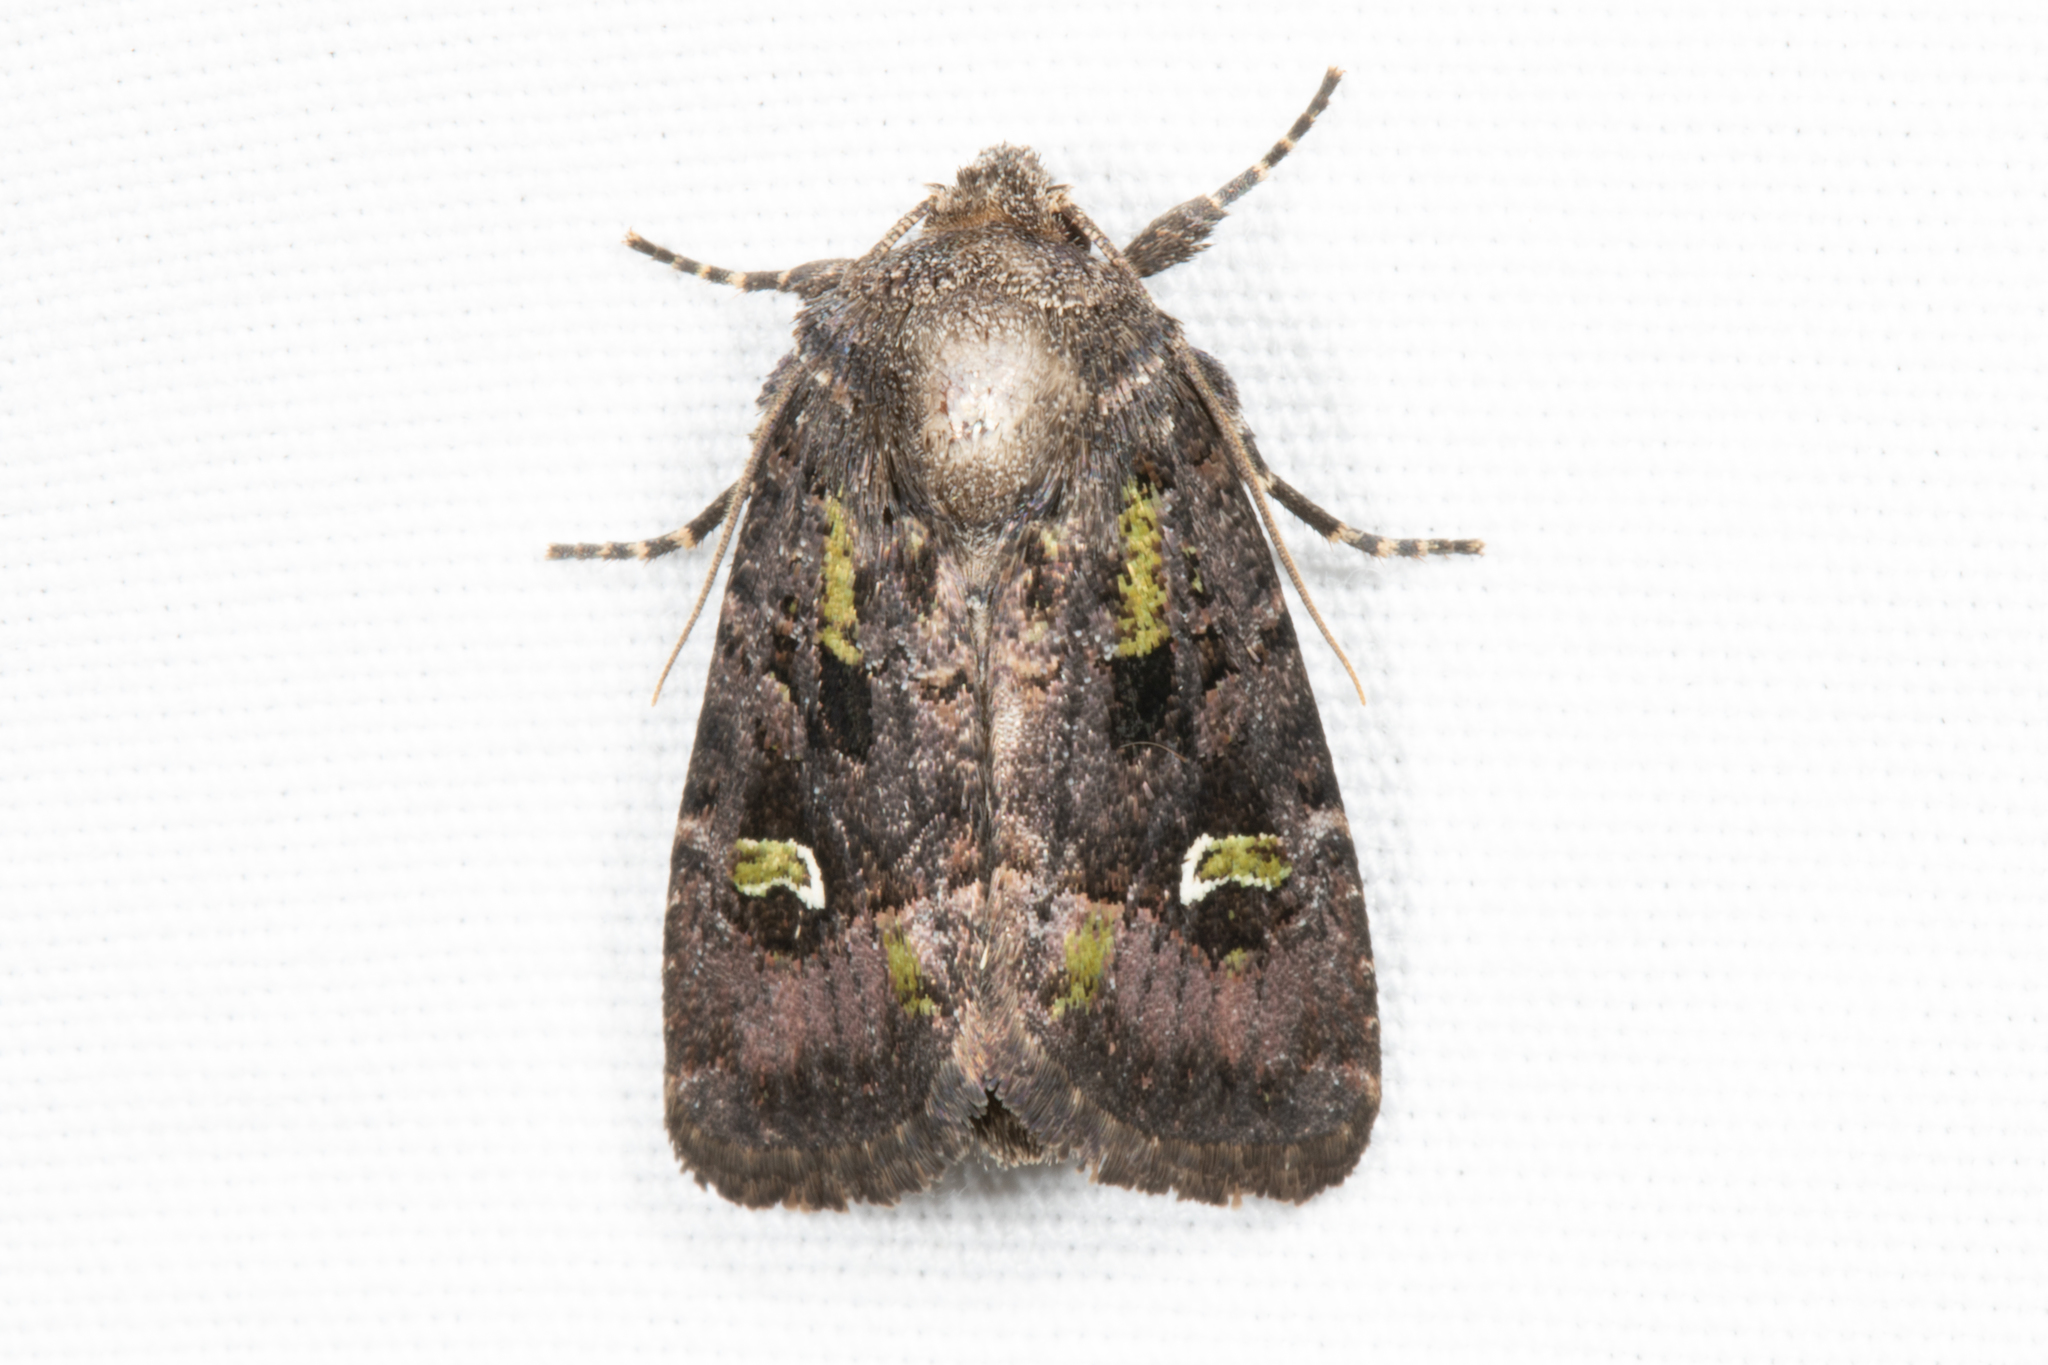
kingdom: Animalia
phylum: Arthropoda
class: Insecta
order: Lepidoptera
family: Noctuidae
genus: Lacinipolia
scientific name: Lacinipolia renigera
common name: Kidney-spotted minor
